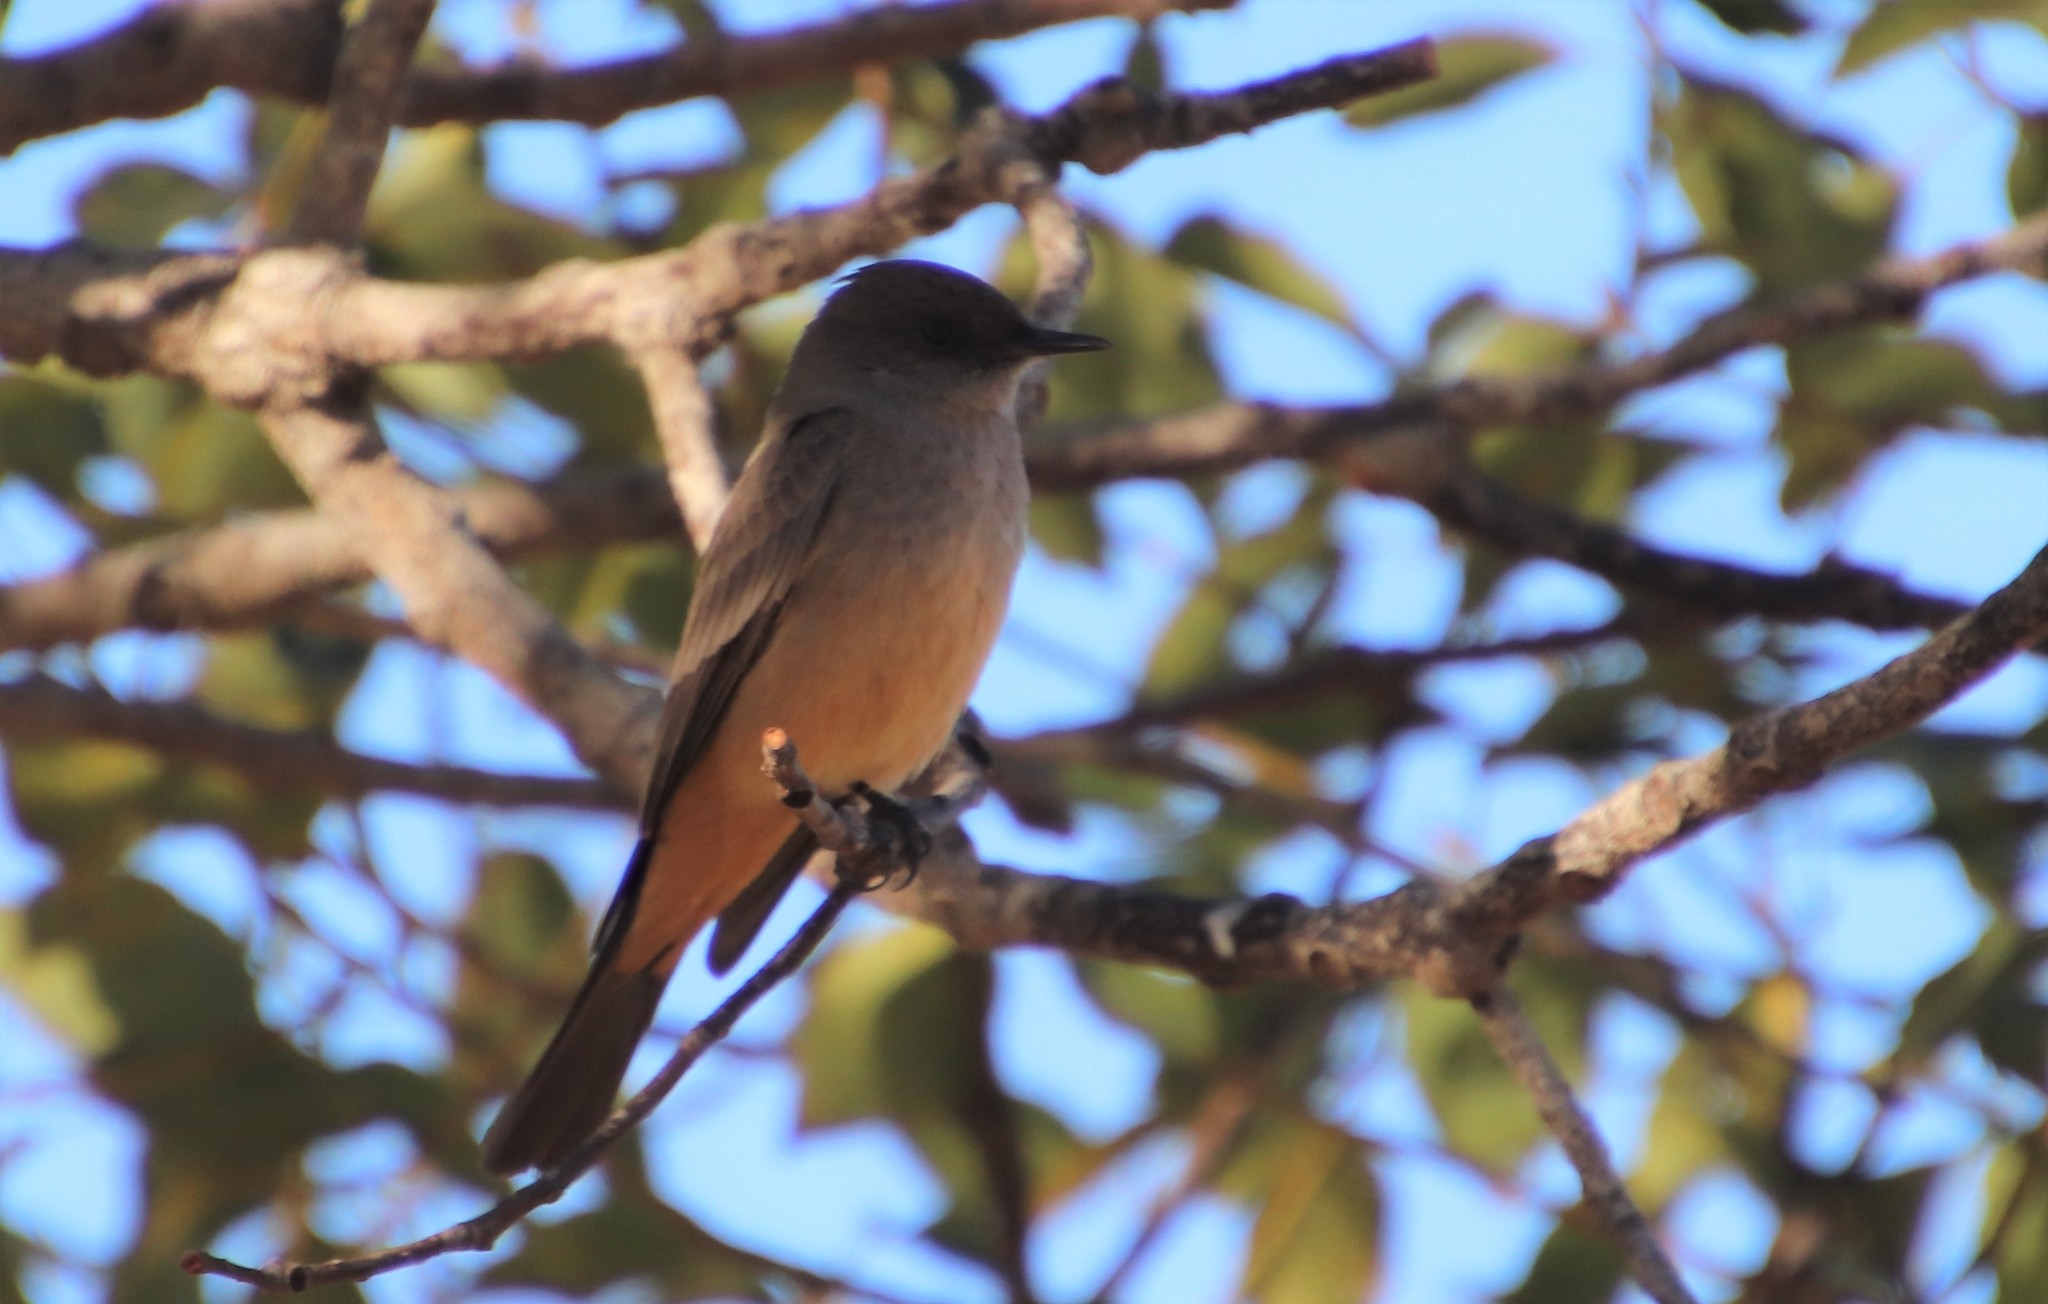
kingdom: Animalia
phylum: Chordata
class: Aves
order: Passeriformes
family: Tyrannidae
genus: Sayornis
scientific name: Sayornis saya
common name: Say's phoebe
